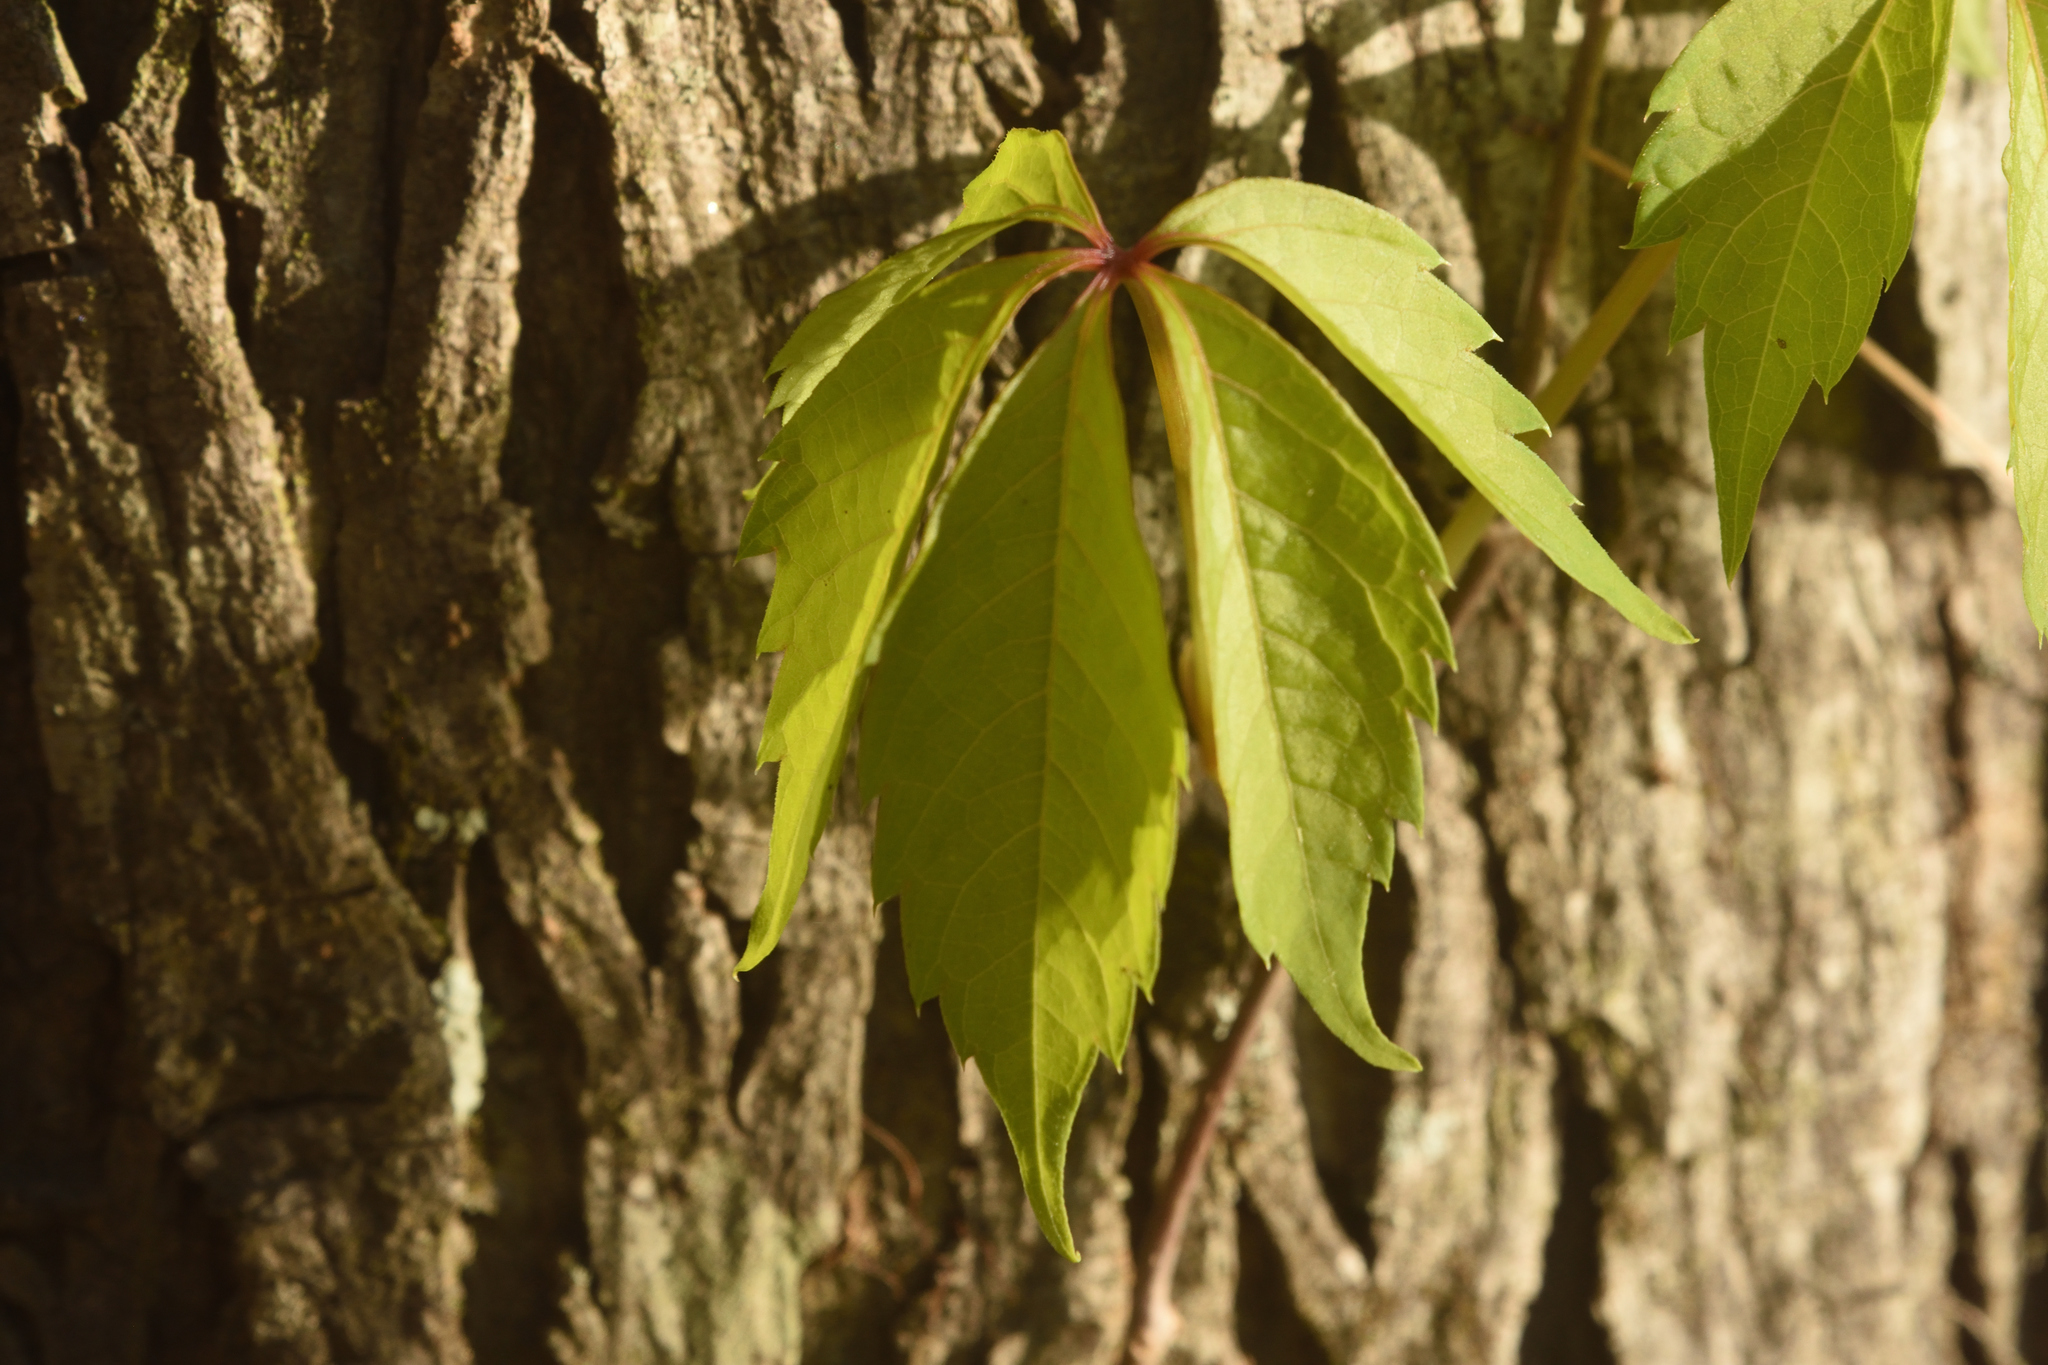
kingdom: Plantae
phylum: Tracheophyta
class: Magnoliopsida
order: Vitales
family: Vitaceae
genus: Parthenocissus
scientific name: Parthenocissus quinquefolia
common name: Virginia-creeper
